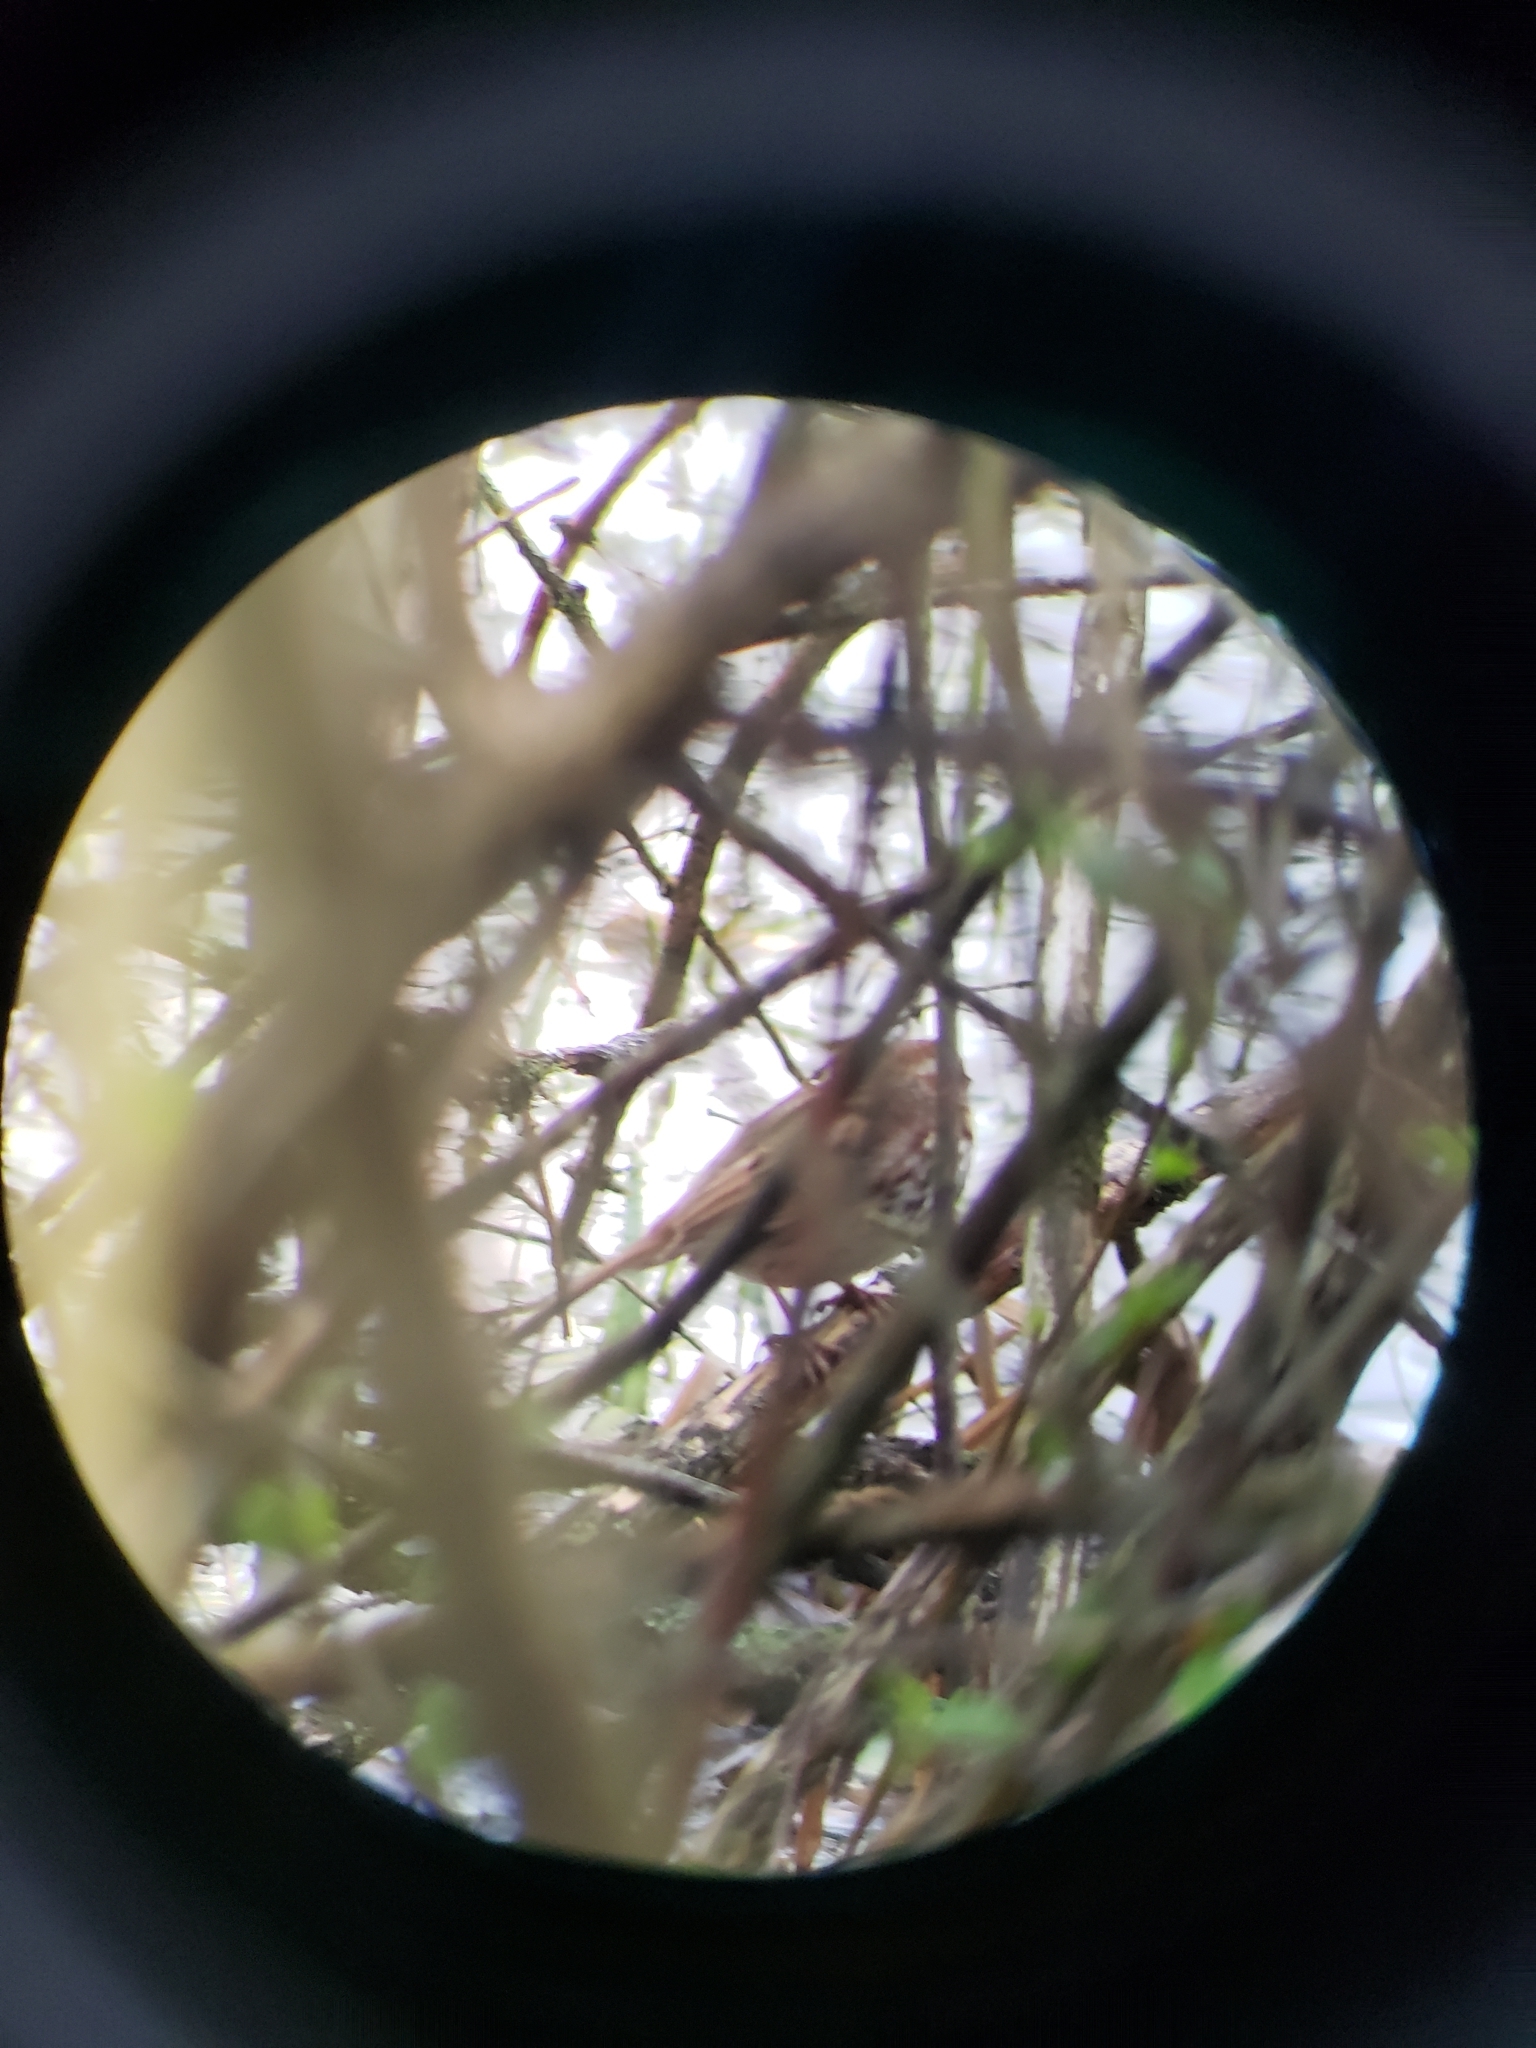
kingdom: Animalia
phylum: Chordata
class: Aves
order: Passeriformes
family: Passerellidae
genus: Melospiza
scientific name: Melospiza melodia
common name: Song sparrow
